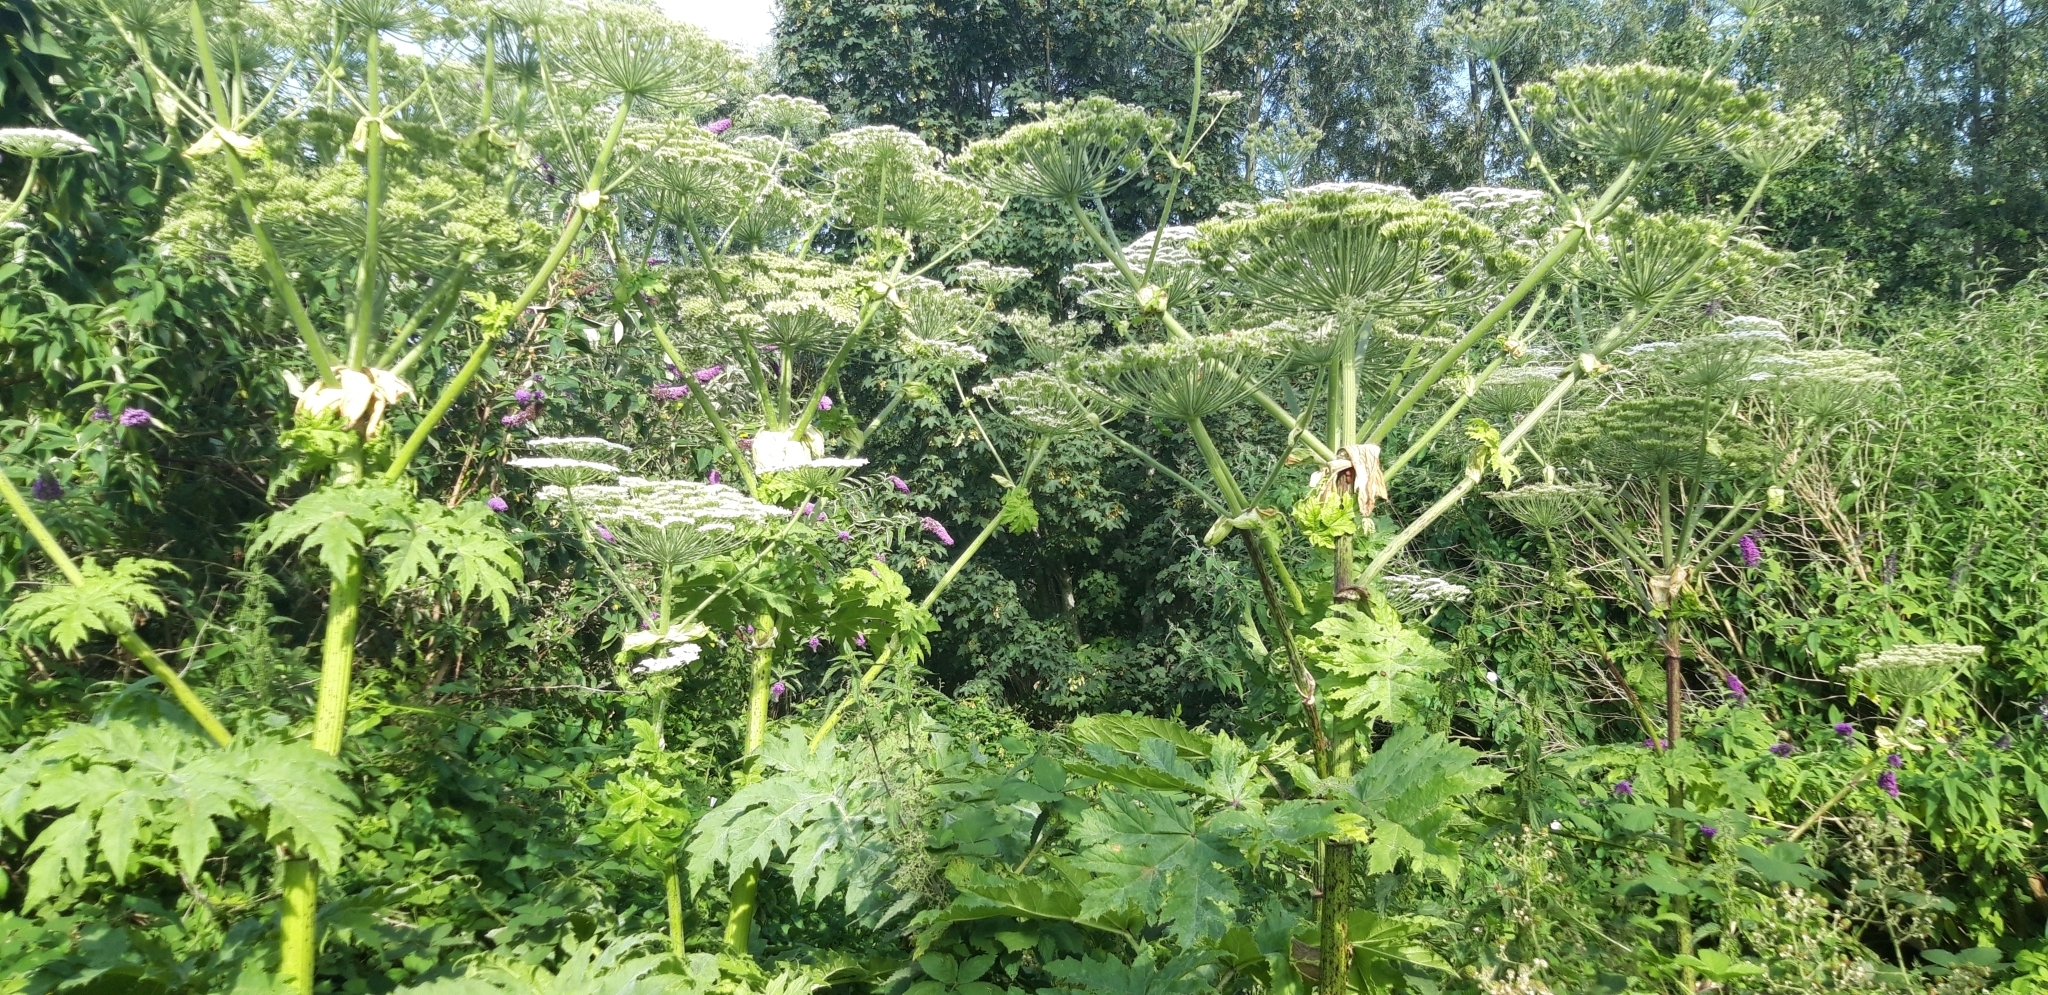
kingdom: Plantae
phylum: Tracheophyta
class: Magnoliopsida
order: Apiales
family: Apiaceae
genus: Heracleum
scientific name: Heracleum mantegazzianum
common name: Giant hogweed
